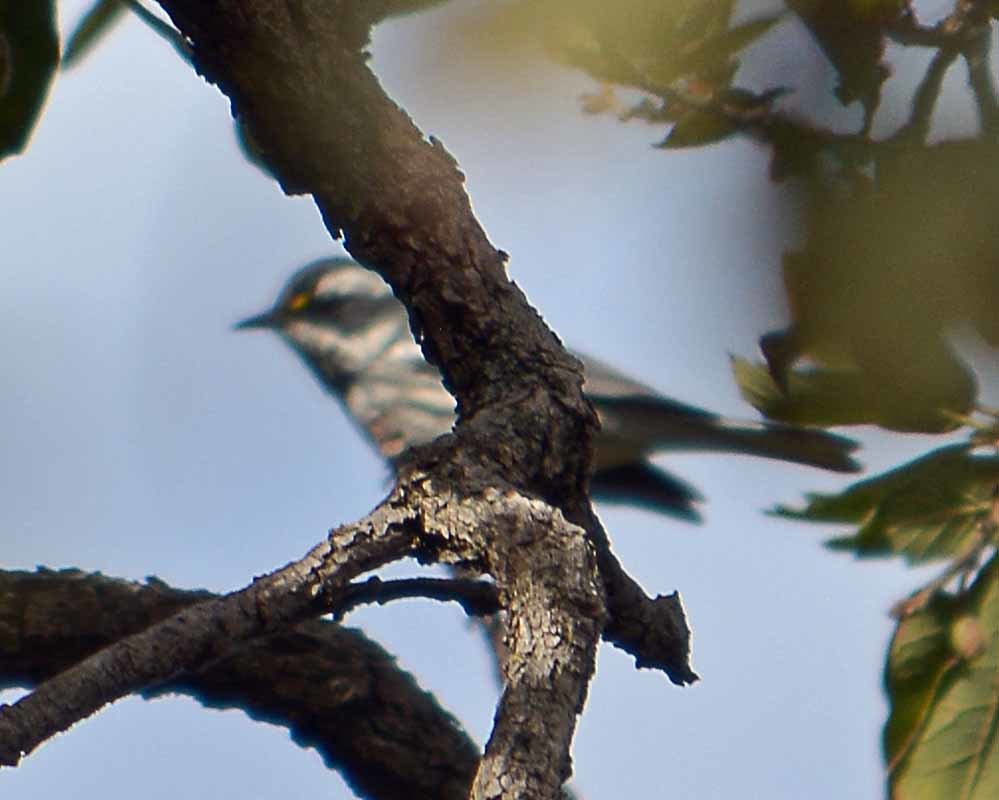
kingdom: Animalia
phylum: Chordata
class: Aves
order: Passeriformes
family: Parulidae
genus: Setophaga
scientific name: Setophaga nigrescens
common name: Black-throated gray warbler
